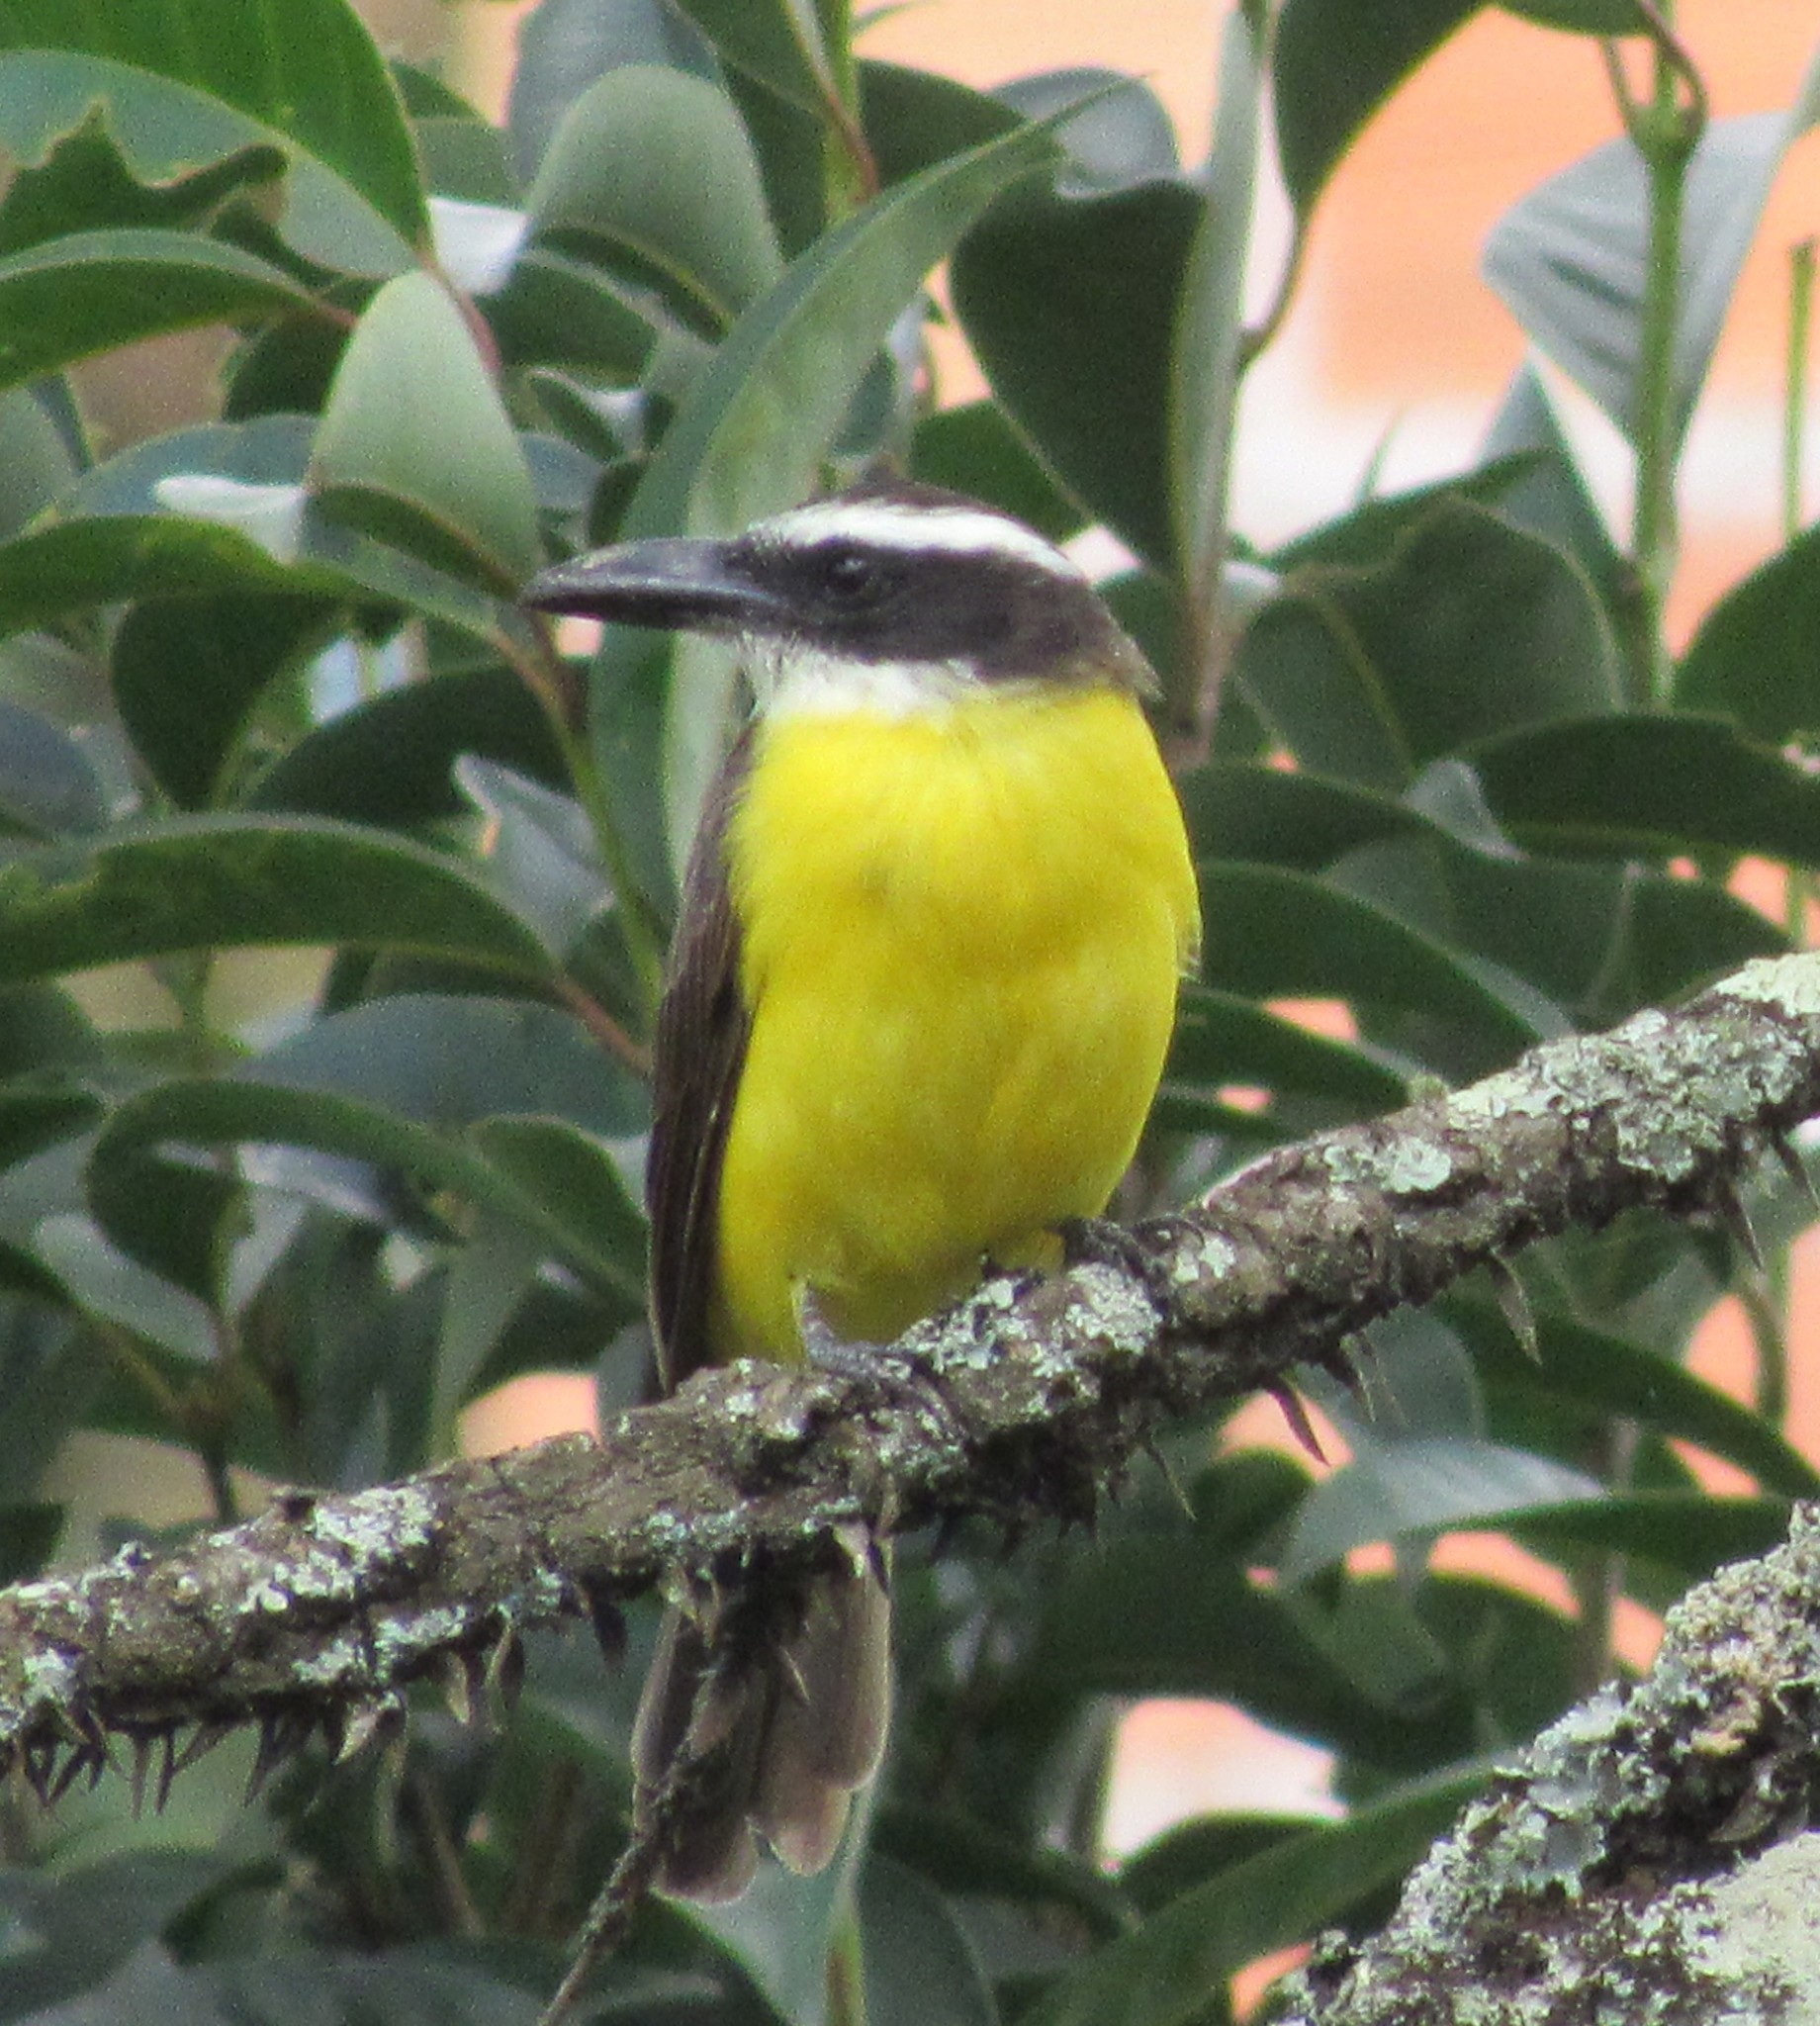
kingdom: Animalia
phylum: Chordata
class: Aves
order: Passeriformes
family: Tyrannidae
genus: Megarynchus
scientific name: Megarynchus pitangua
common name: Boat-billed flycatcher
